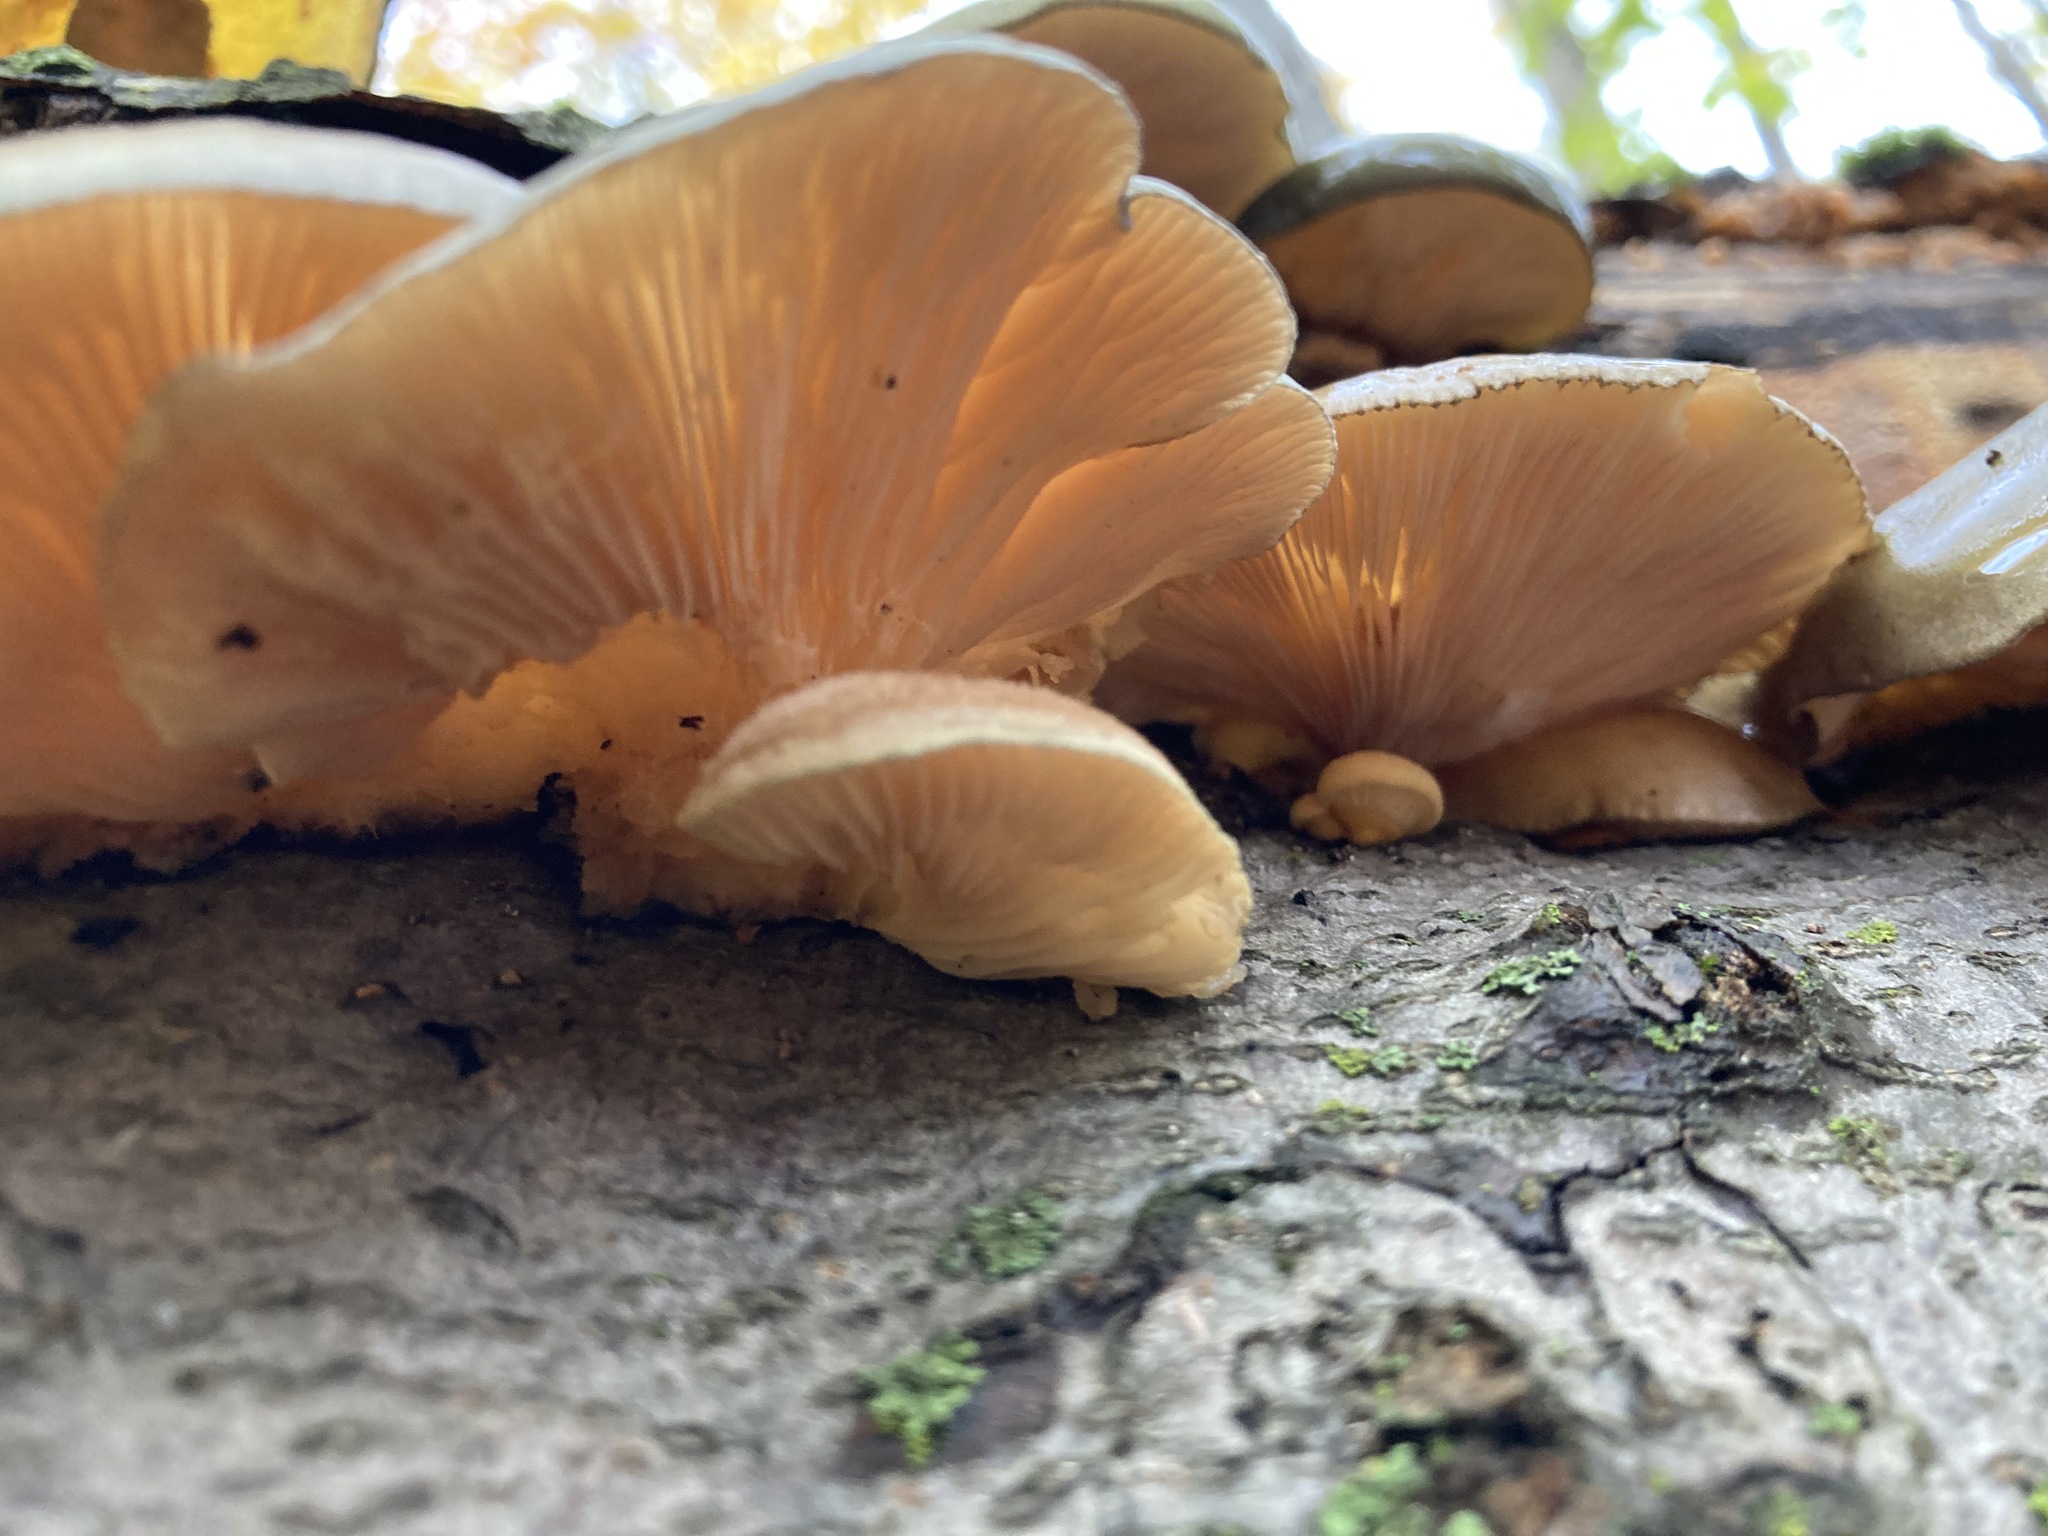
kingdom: Fungi
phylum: Basidiomycota
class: Agaricomycetes
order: Agaricales
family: Phyllotopsidaceae
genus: Phyllotopsis
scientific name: Phyllotopsis nidulans
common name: Orange mock oyster
